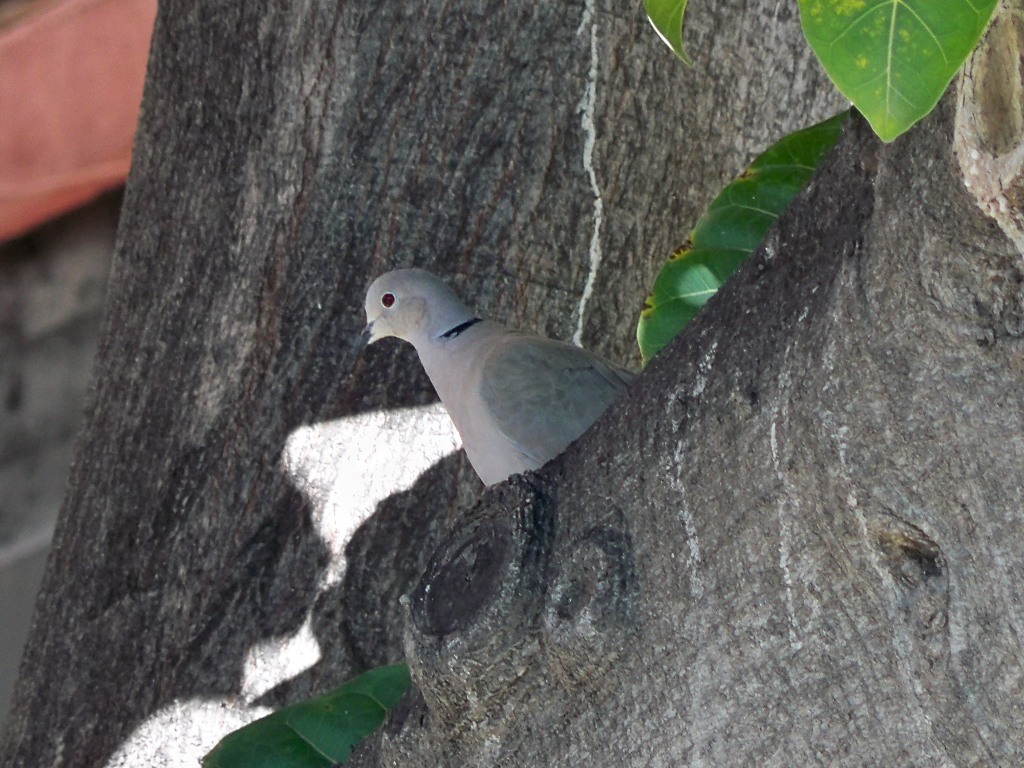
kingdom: Animalia
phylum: Chordata
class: Aves
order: Columbiformes
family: Columbidae
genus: Streptopelia
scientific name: Streptopelia decaocto
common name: Eurasian collared dove
